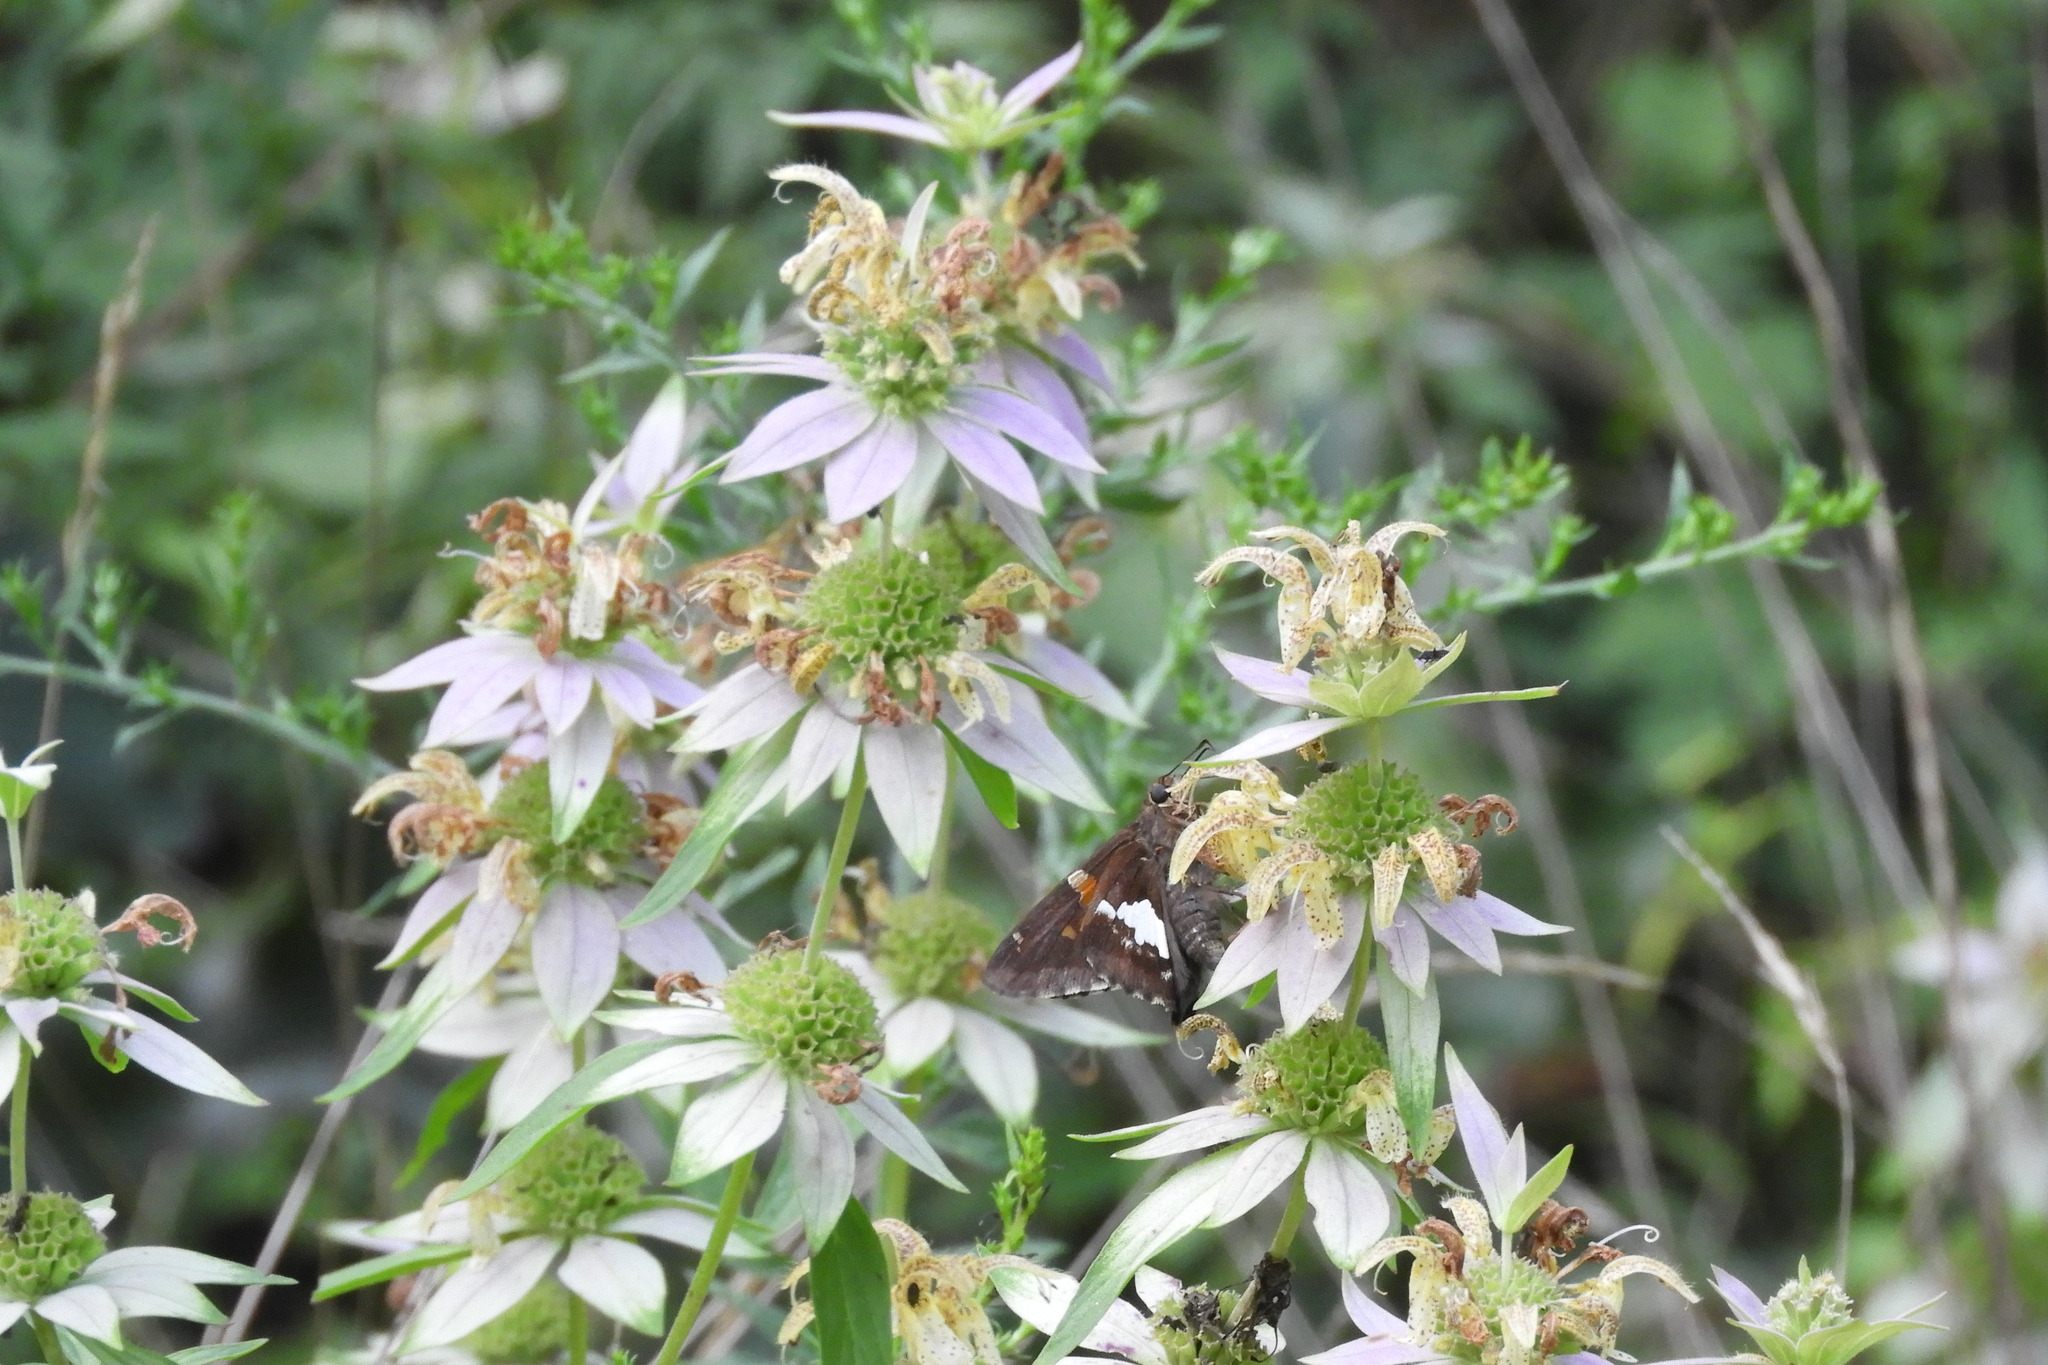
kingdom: Plantae
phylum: Tracheophyta
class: Magnoliopsida
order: Lamiales
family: Lamiaceae
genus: Monarda
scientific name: Monarda punctata
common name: Dotted monarda
